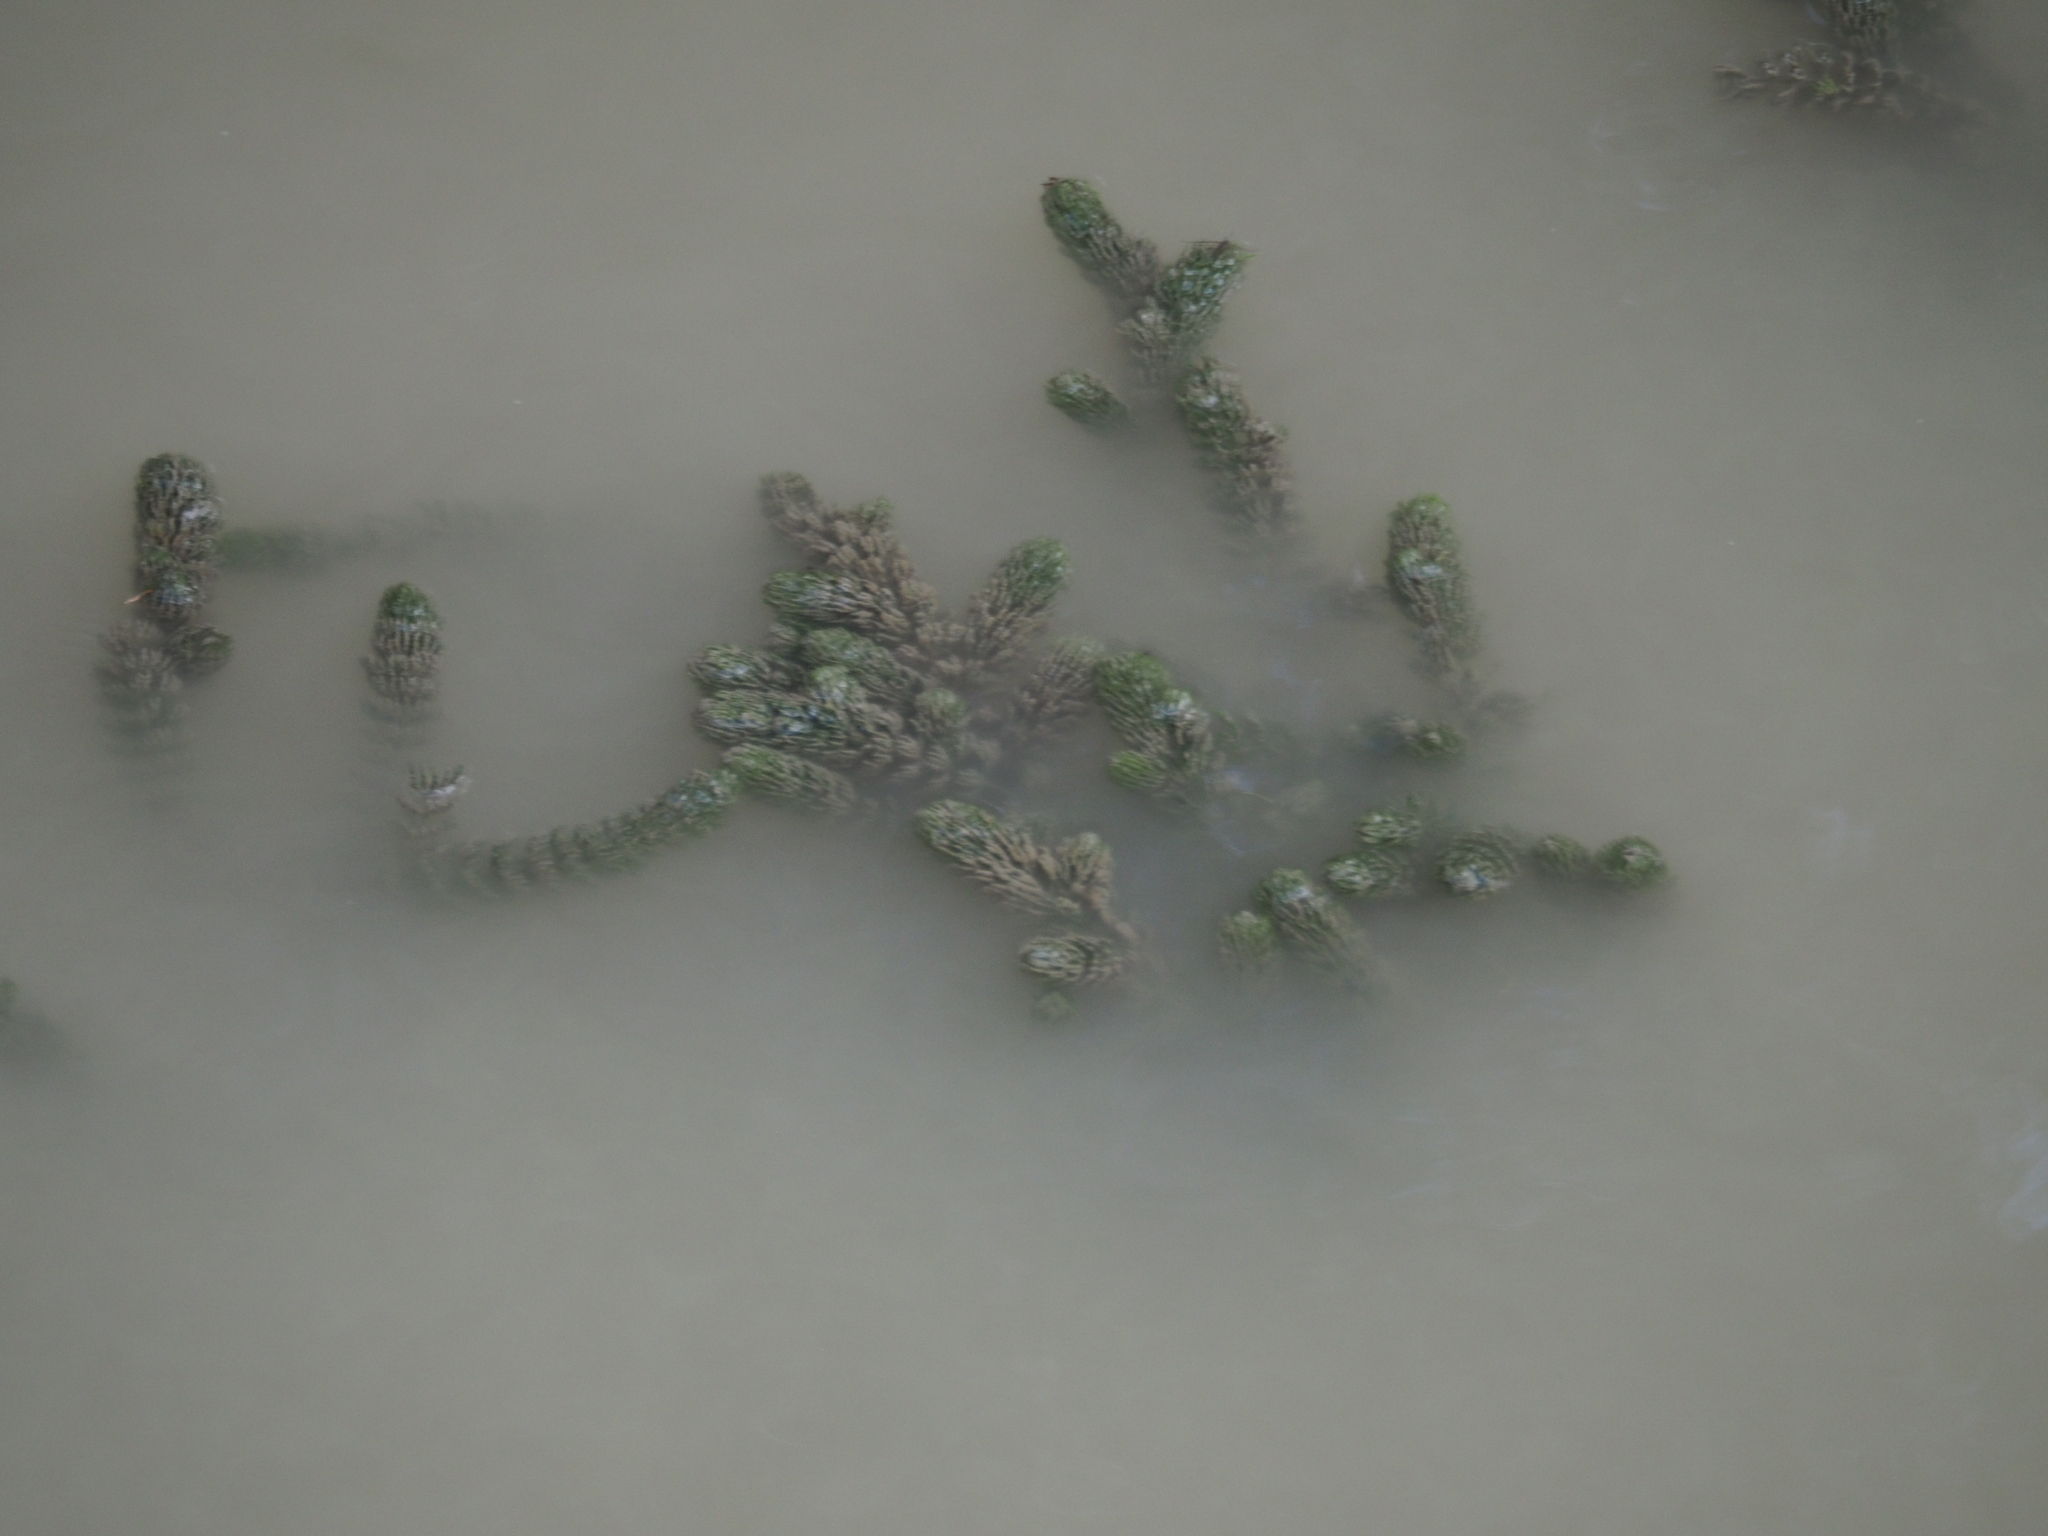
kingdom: Plantae
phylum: Tracheophyta
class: Magnoliopsida
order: Ceratophyllales
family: Ceratophyllaceae
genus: Ceratophyllum
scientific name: Ceratophyllum demersum
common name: Rigid hornwort
